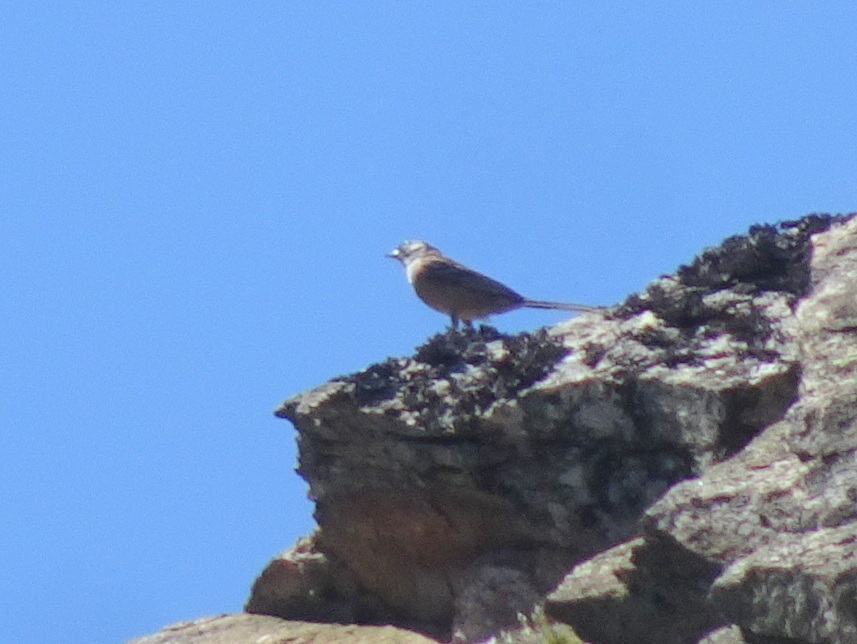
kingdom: Animalia
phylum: Chordata
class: Aves
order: Passeriformes
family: Emberizidae
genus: Emberiza
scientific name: Emberiza cia
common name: Rock bunting
